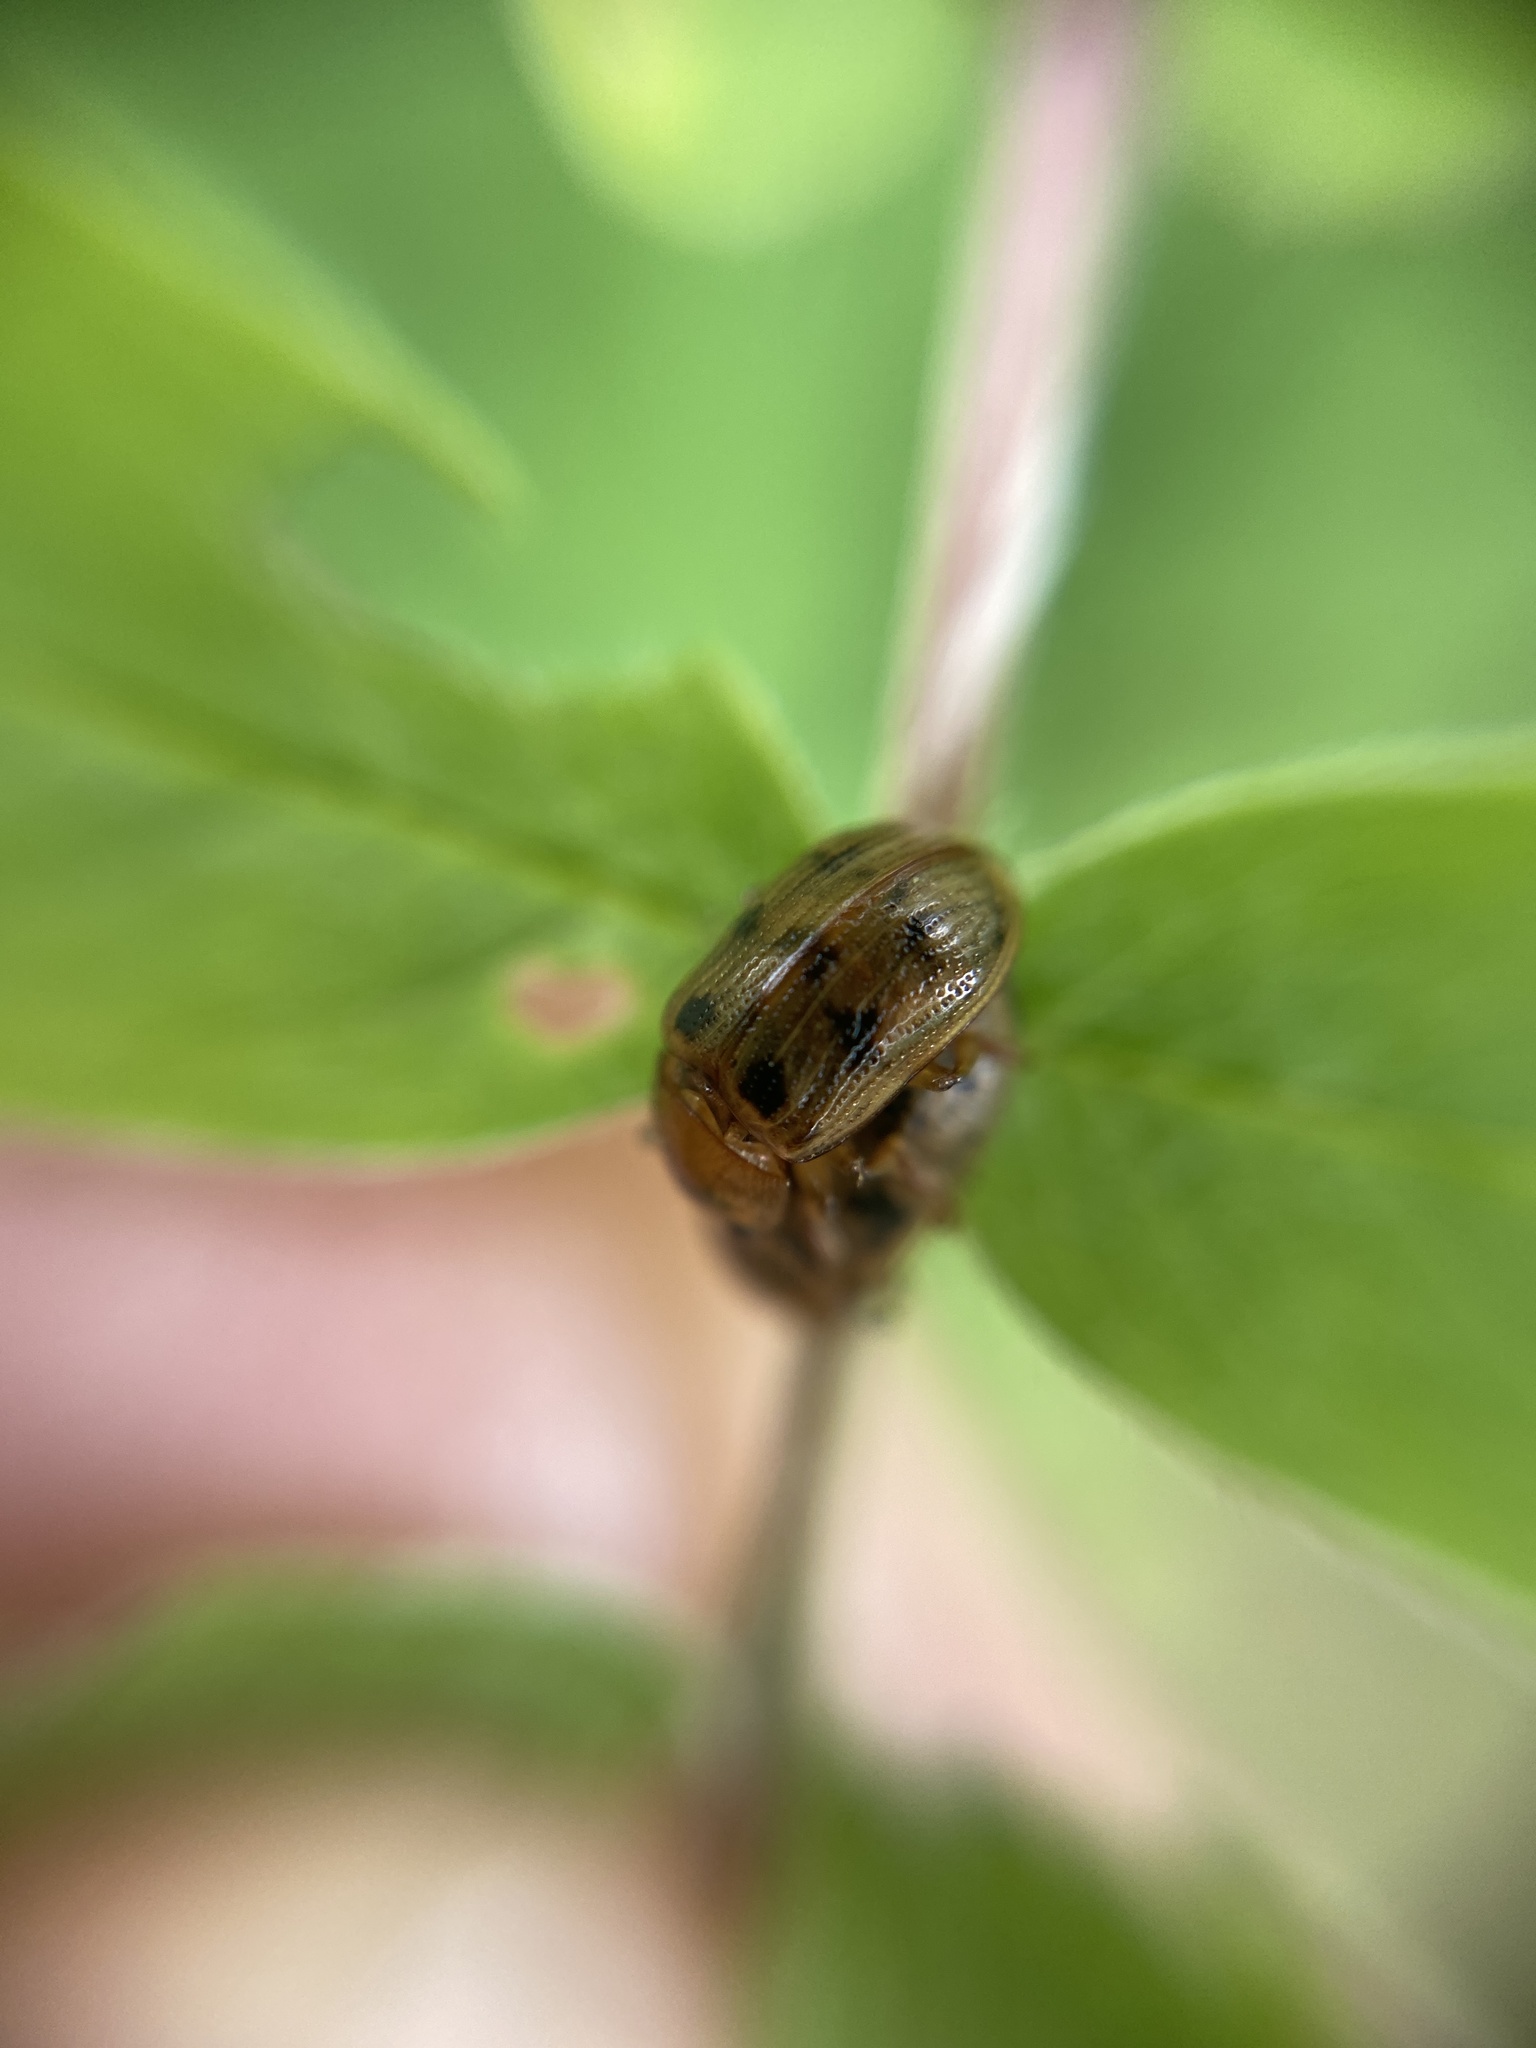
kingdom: Animalia
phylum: Arthropoda
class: Insecta
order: Coleoptera
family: Chrysomelidae
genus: Gonioctena
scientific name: Gonioctena quinquepunctata
